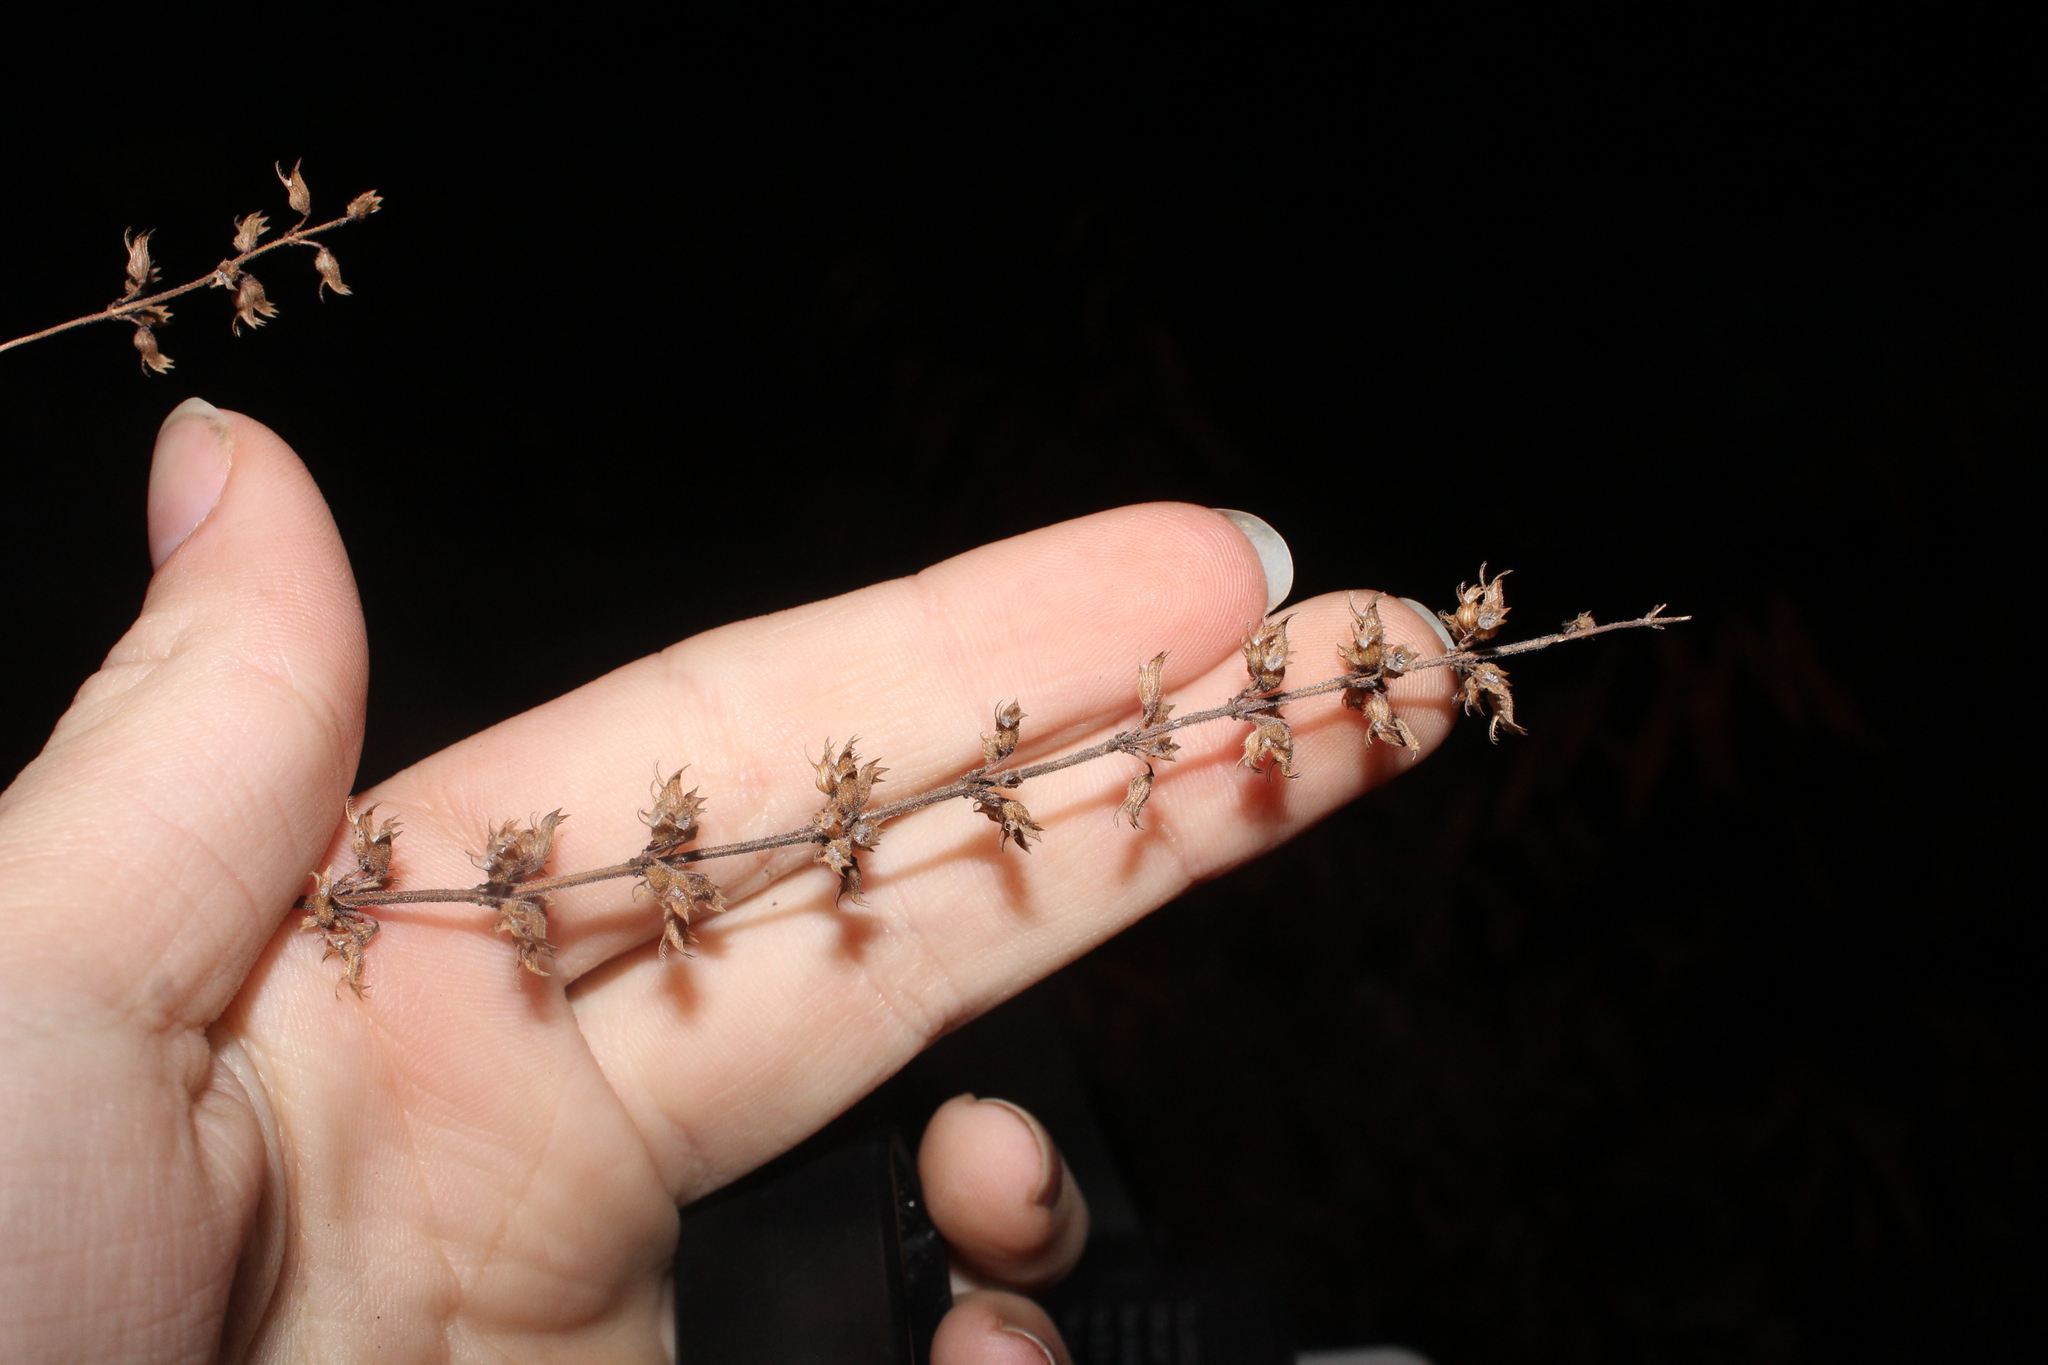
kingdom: Plantae
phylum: Tracheophyta
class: Magnoliopsida
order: Lamiales
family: Lamiaceae
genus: Hedeoma
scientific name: Hedeoma pulegioides
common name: American false pennyroyal
